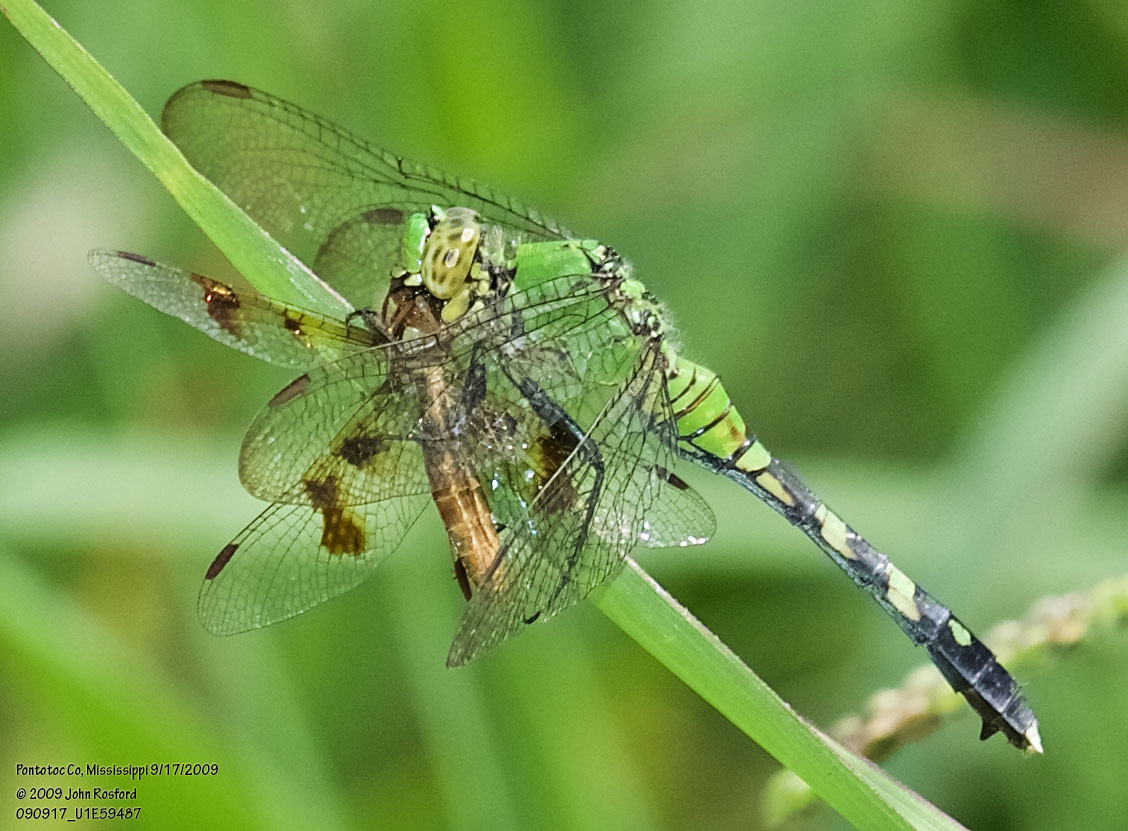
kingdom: Animalia
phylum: Arthropoda
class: Insecta
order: Odonata
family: Libellulidae
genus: Erythemis
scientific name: Erythemis simplicicollis
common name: Eastern pondhawk
